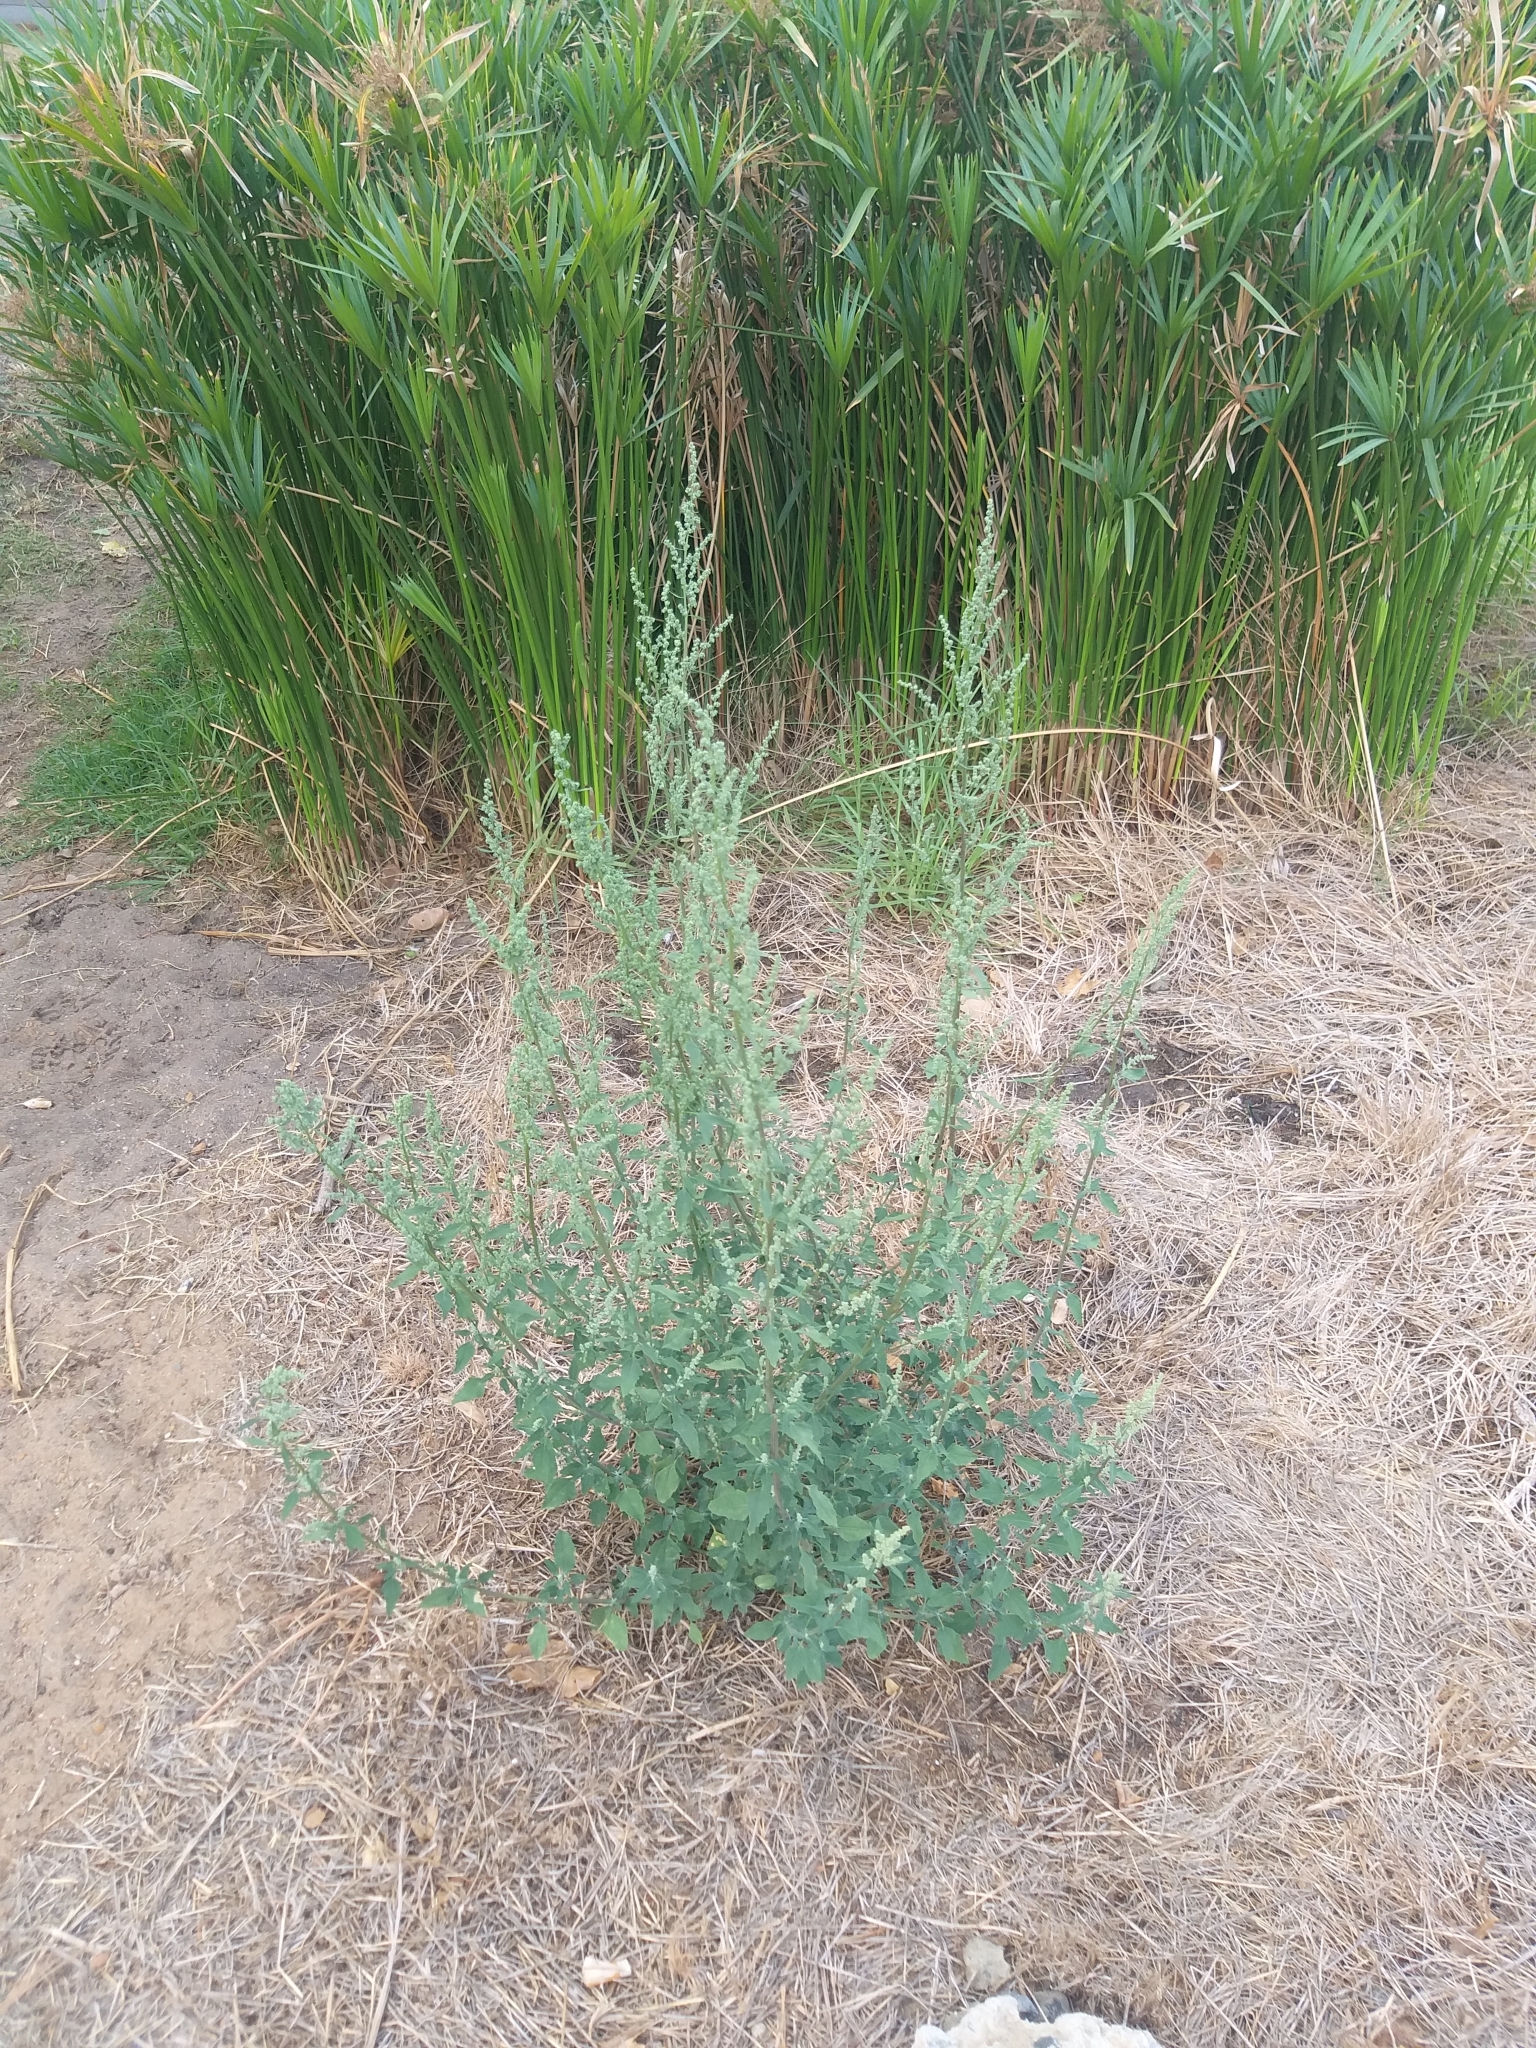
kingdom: Plantae
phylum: Tracheophyta
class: Magnoliopsida
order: Caryophyllales
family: Amaranthaceae
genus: Chenopodium
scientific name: Chenopodium album
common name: Fat-hen
